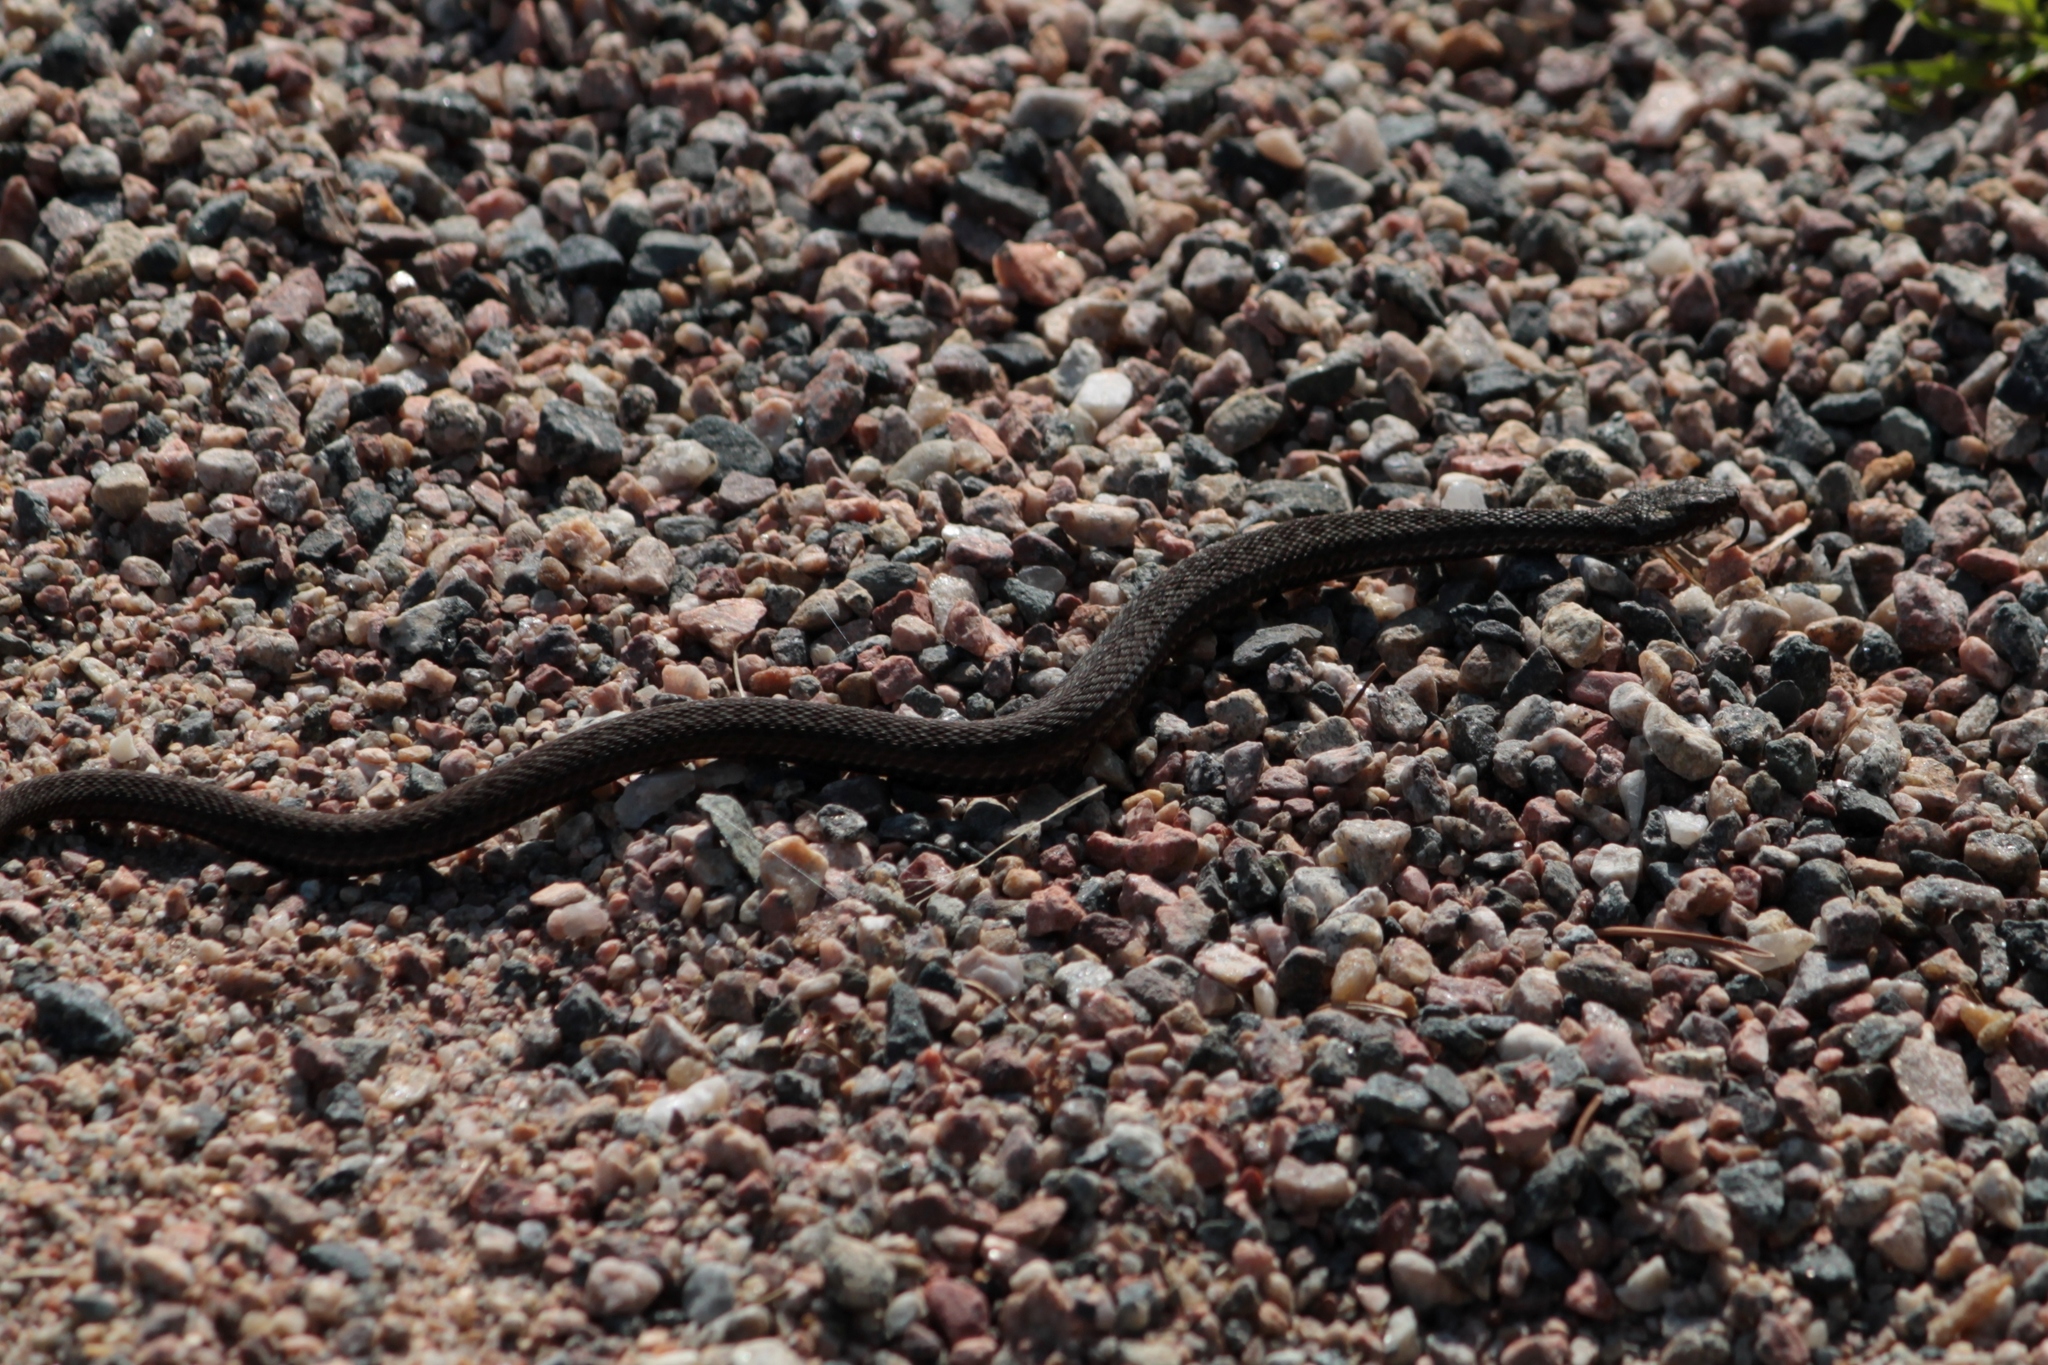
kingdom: Animalia
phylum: Chordata
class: Squamata
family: Viperidae
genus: Vipera
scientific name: Vipera berus
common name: Adder
